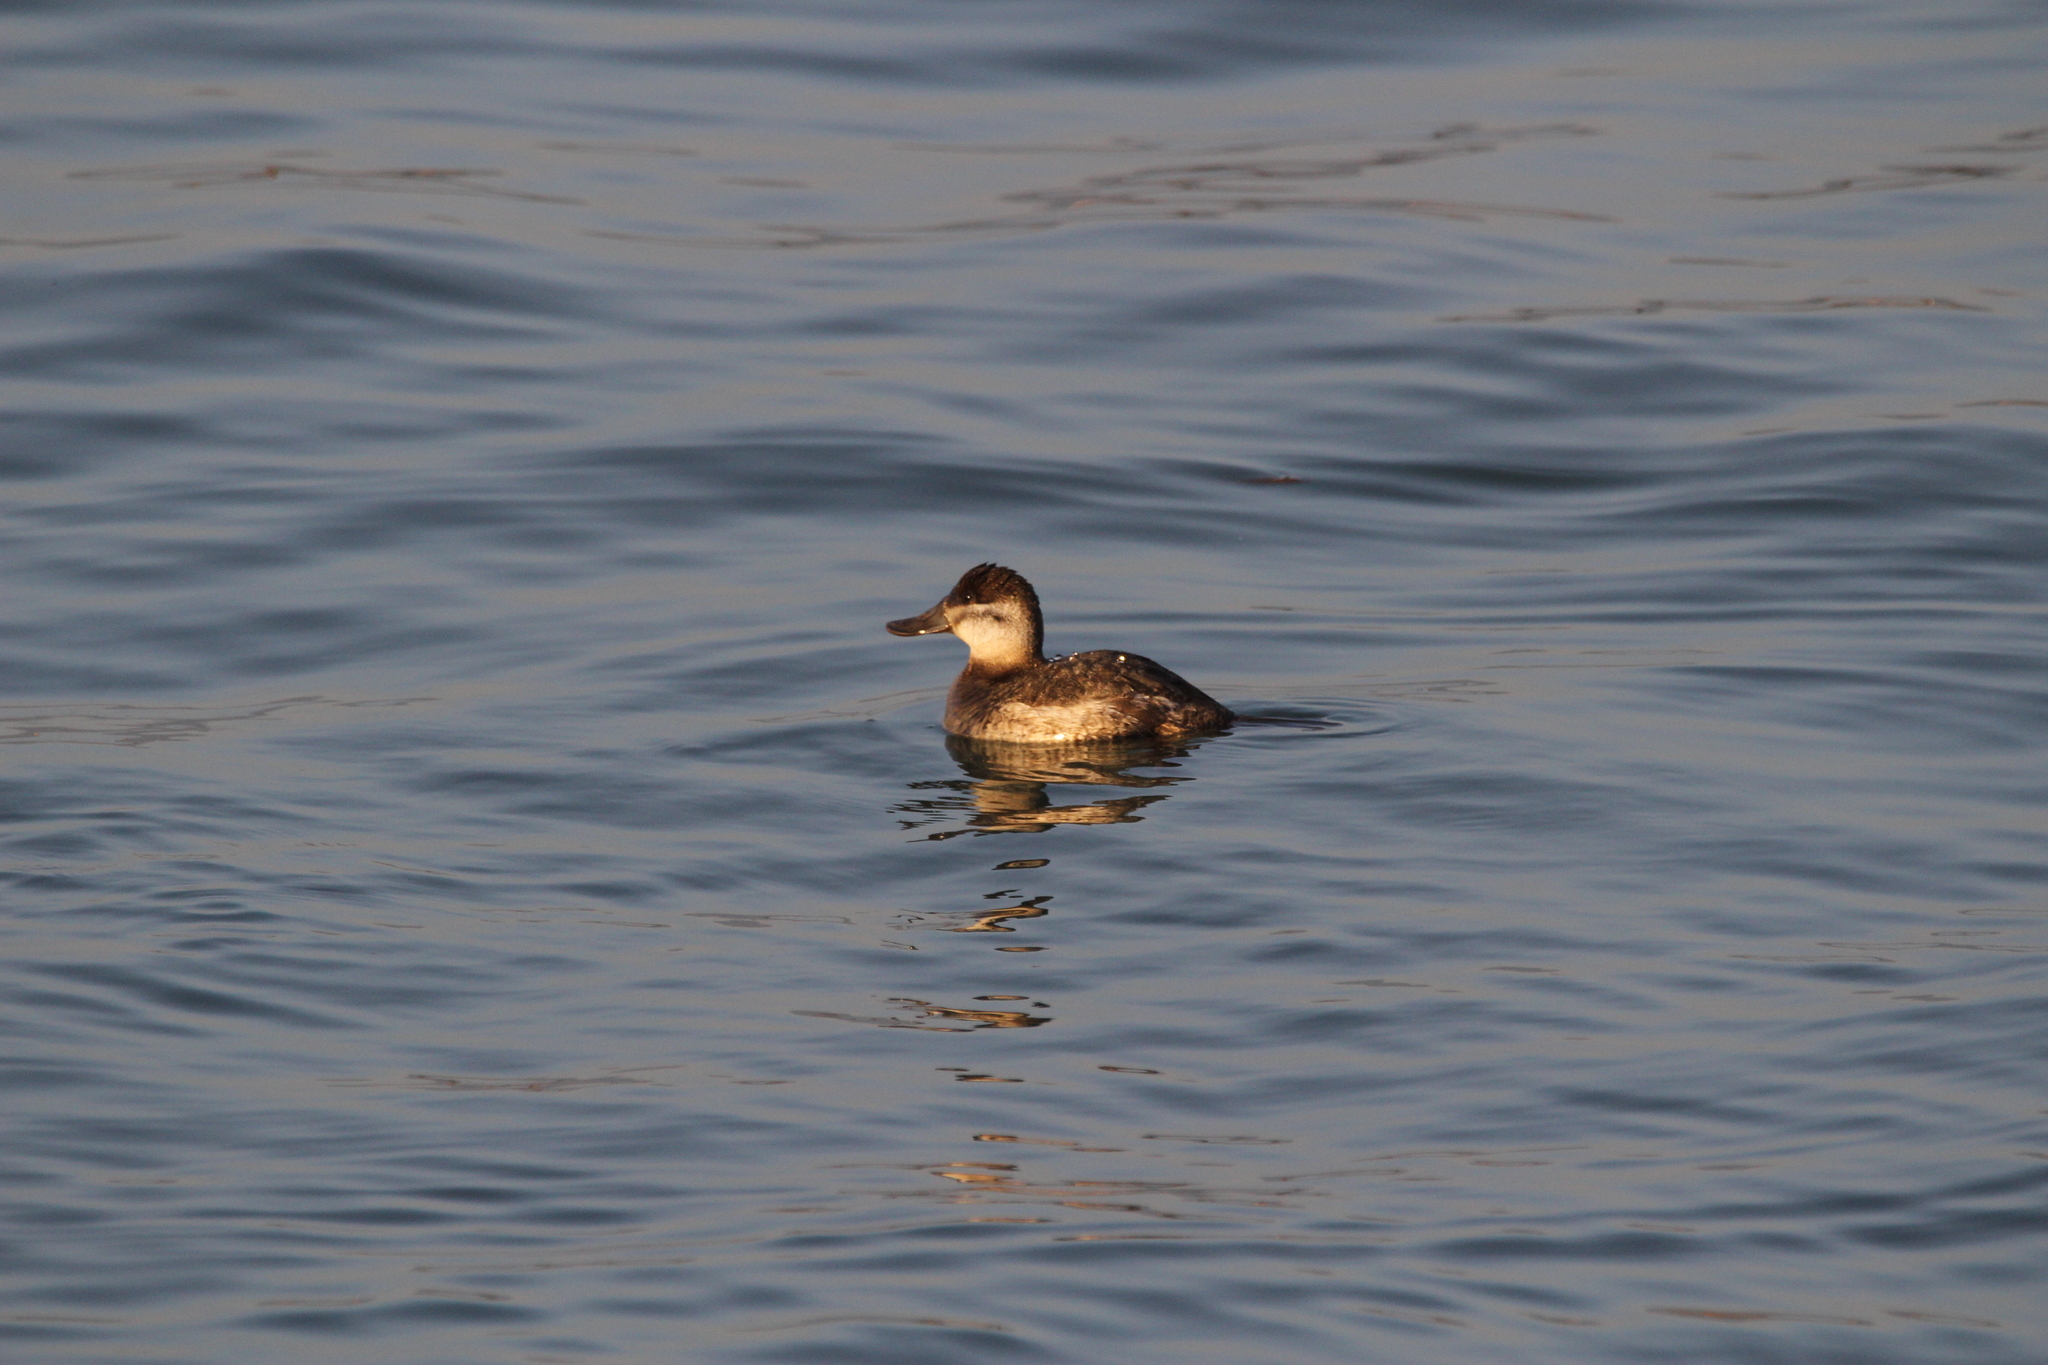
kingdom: Animalia
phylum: Chordata
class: Aves
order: Anseriformes
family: Anatidae
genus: Oxyura
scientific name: Oxyura jamaicensis
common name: Ruddy duck
